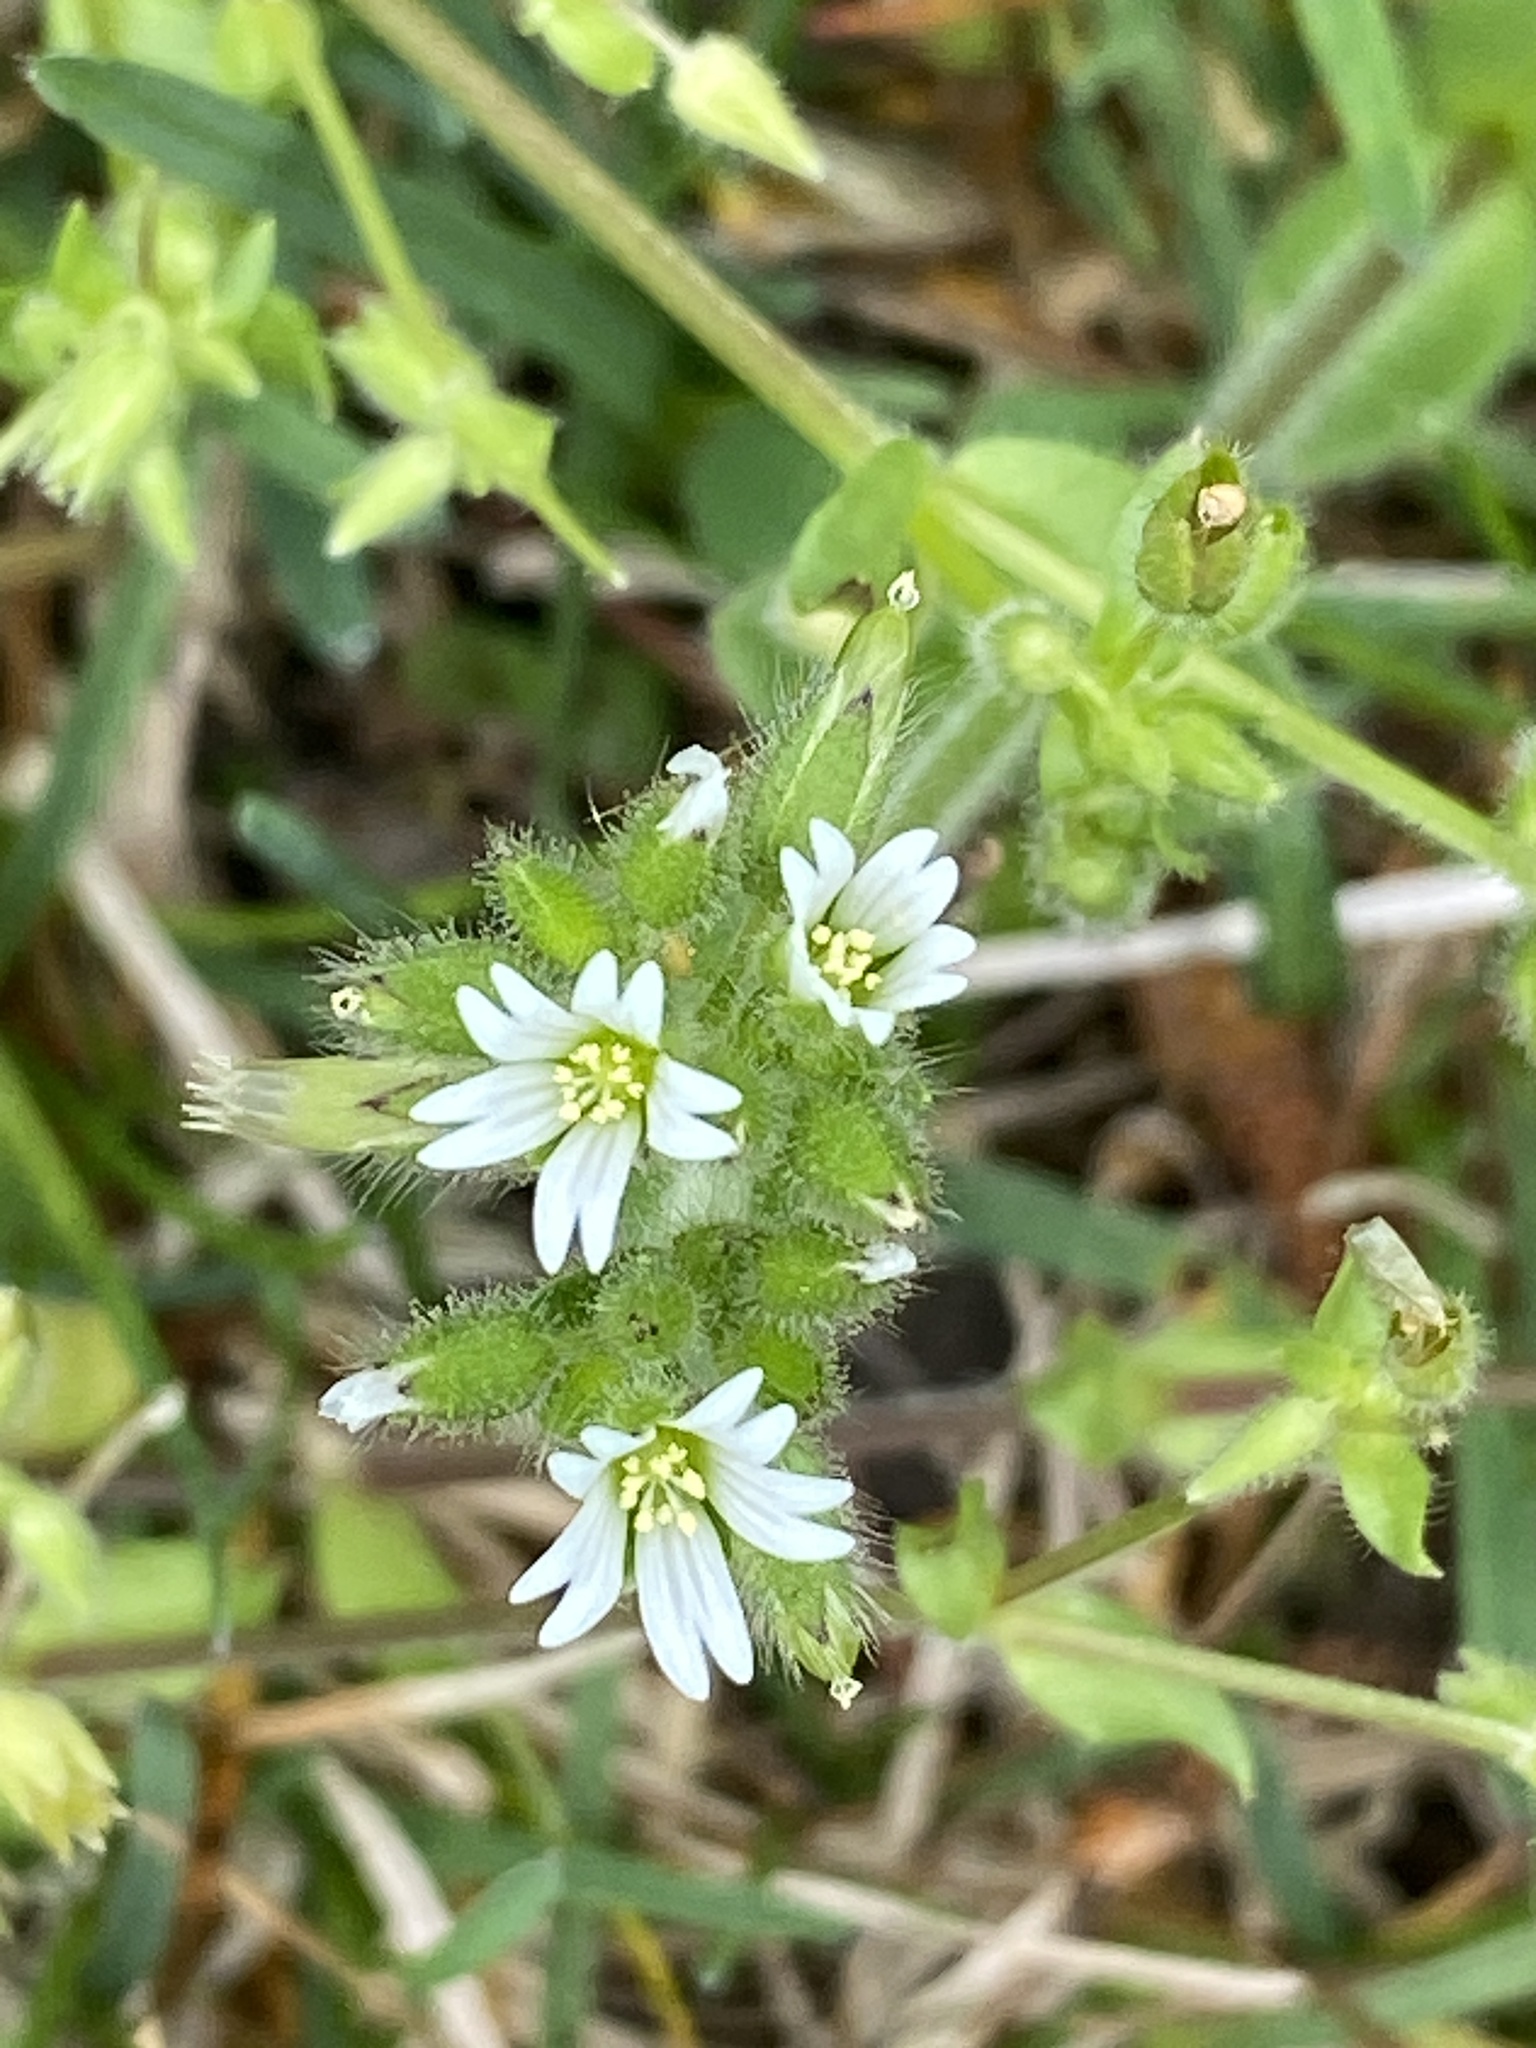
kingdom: Plantae
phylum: Tracheophyta
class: Magnoliopsida
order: Caryophyllales
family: Caryophyllaceae
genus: Cerastium
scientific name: Cerastium glomeratum
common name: Sticky chickweed
